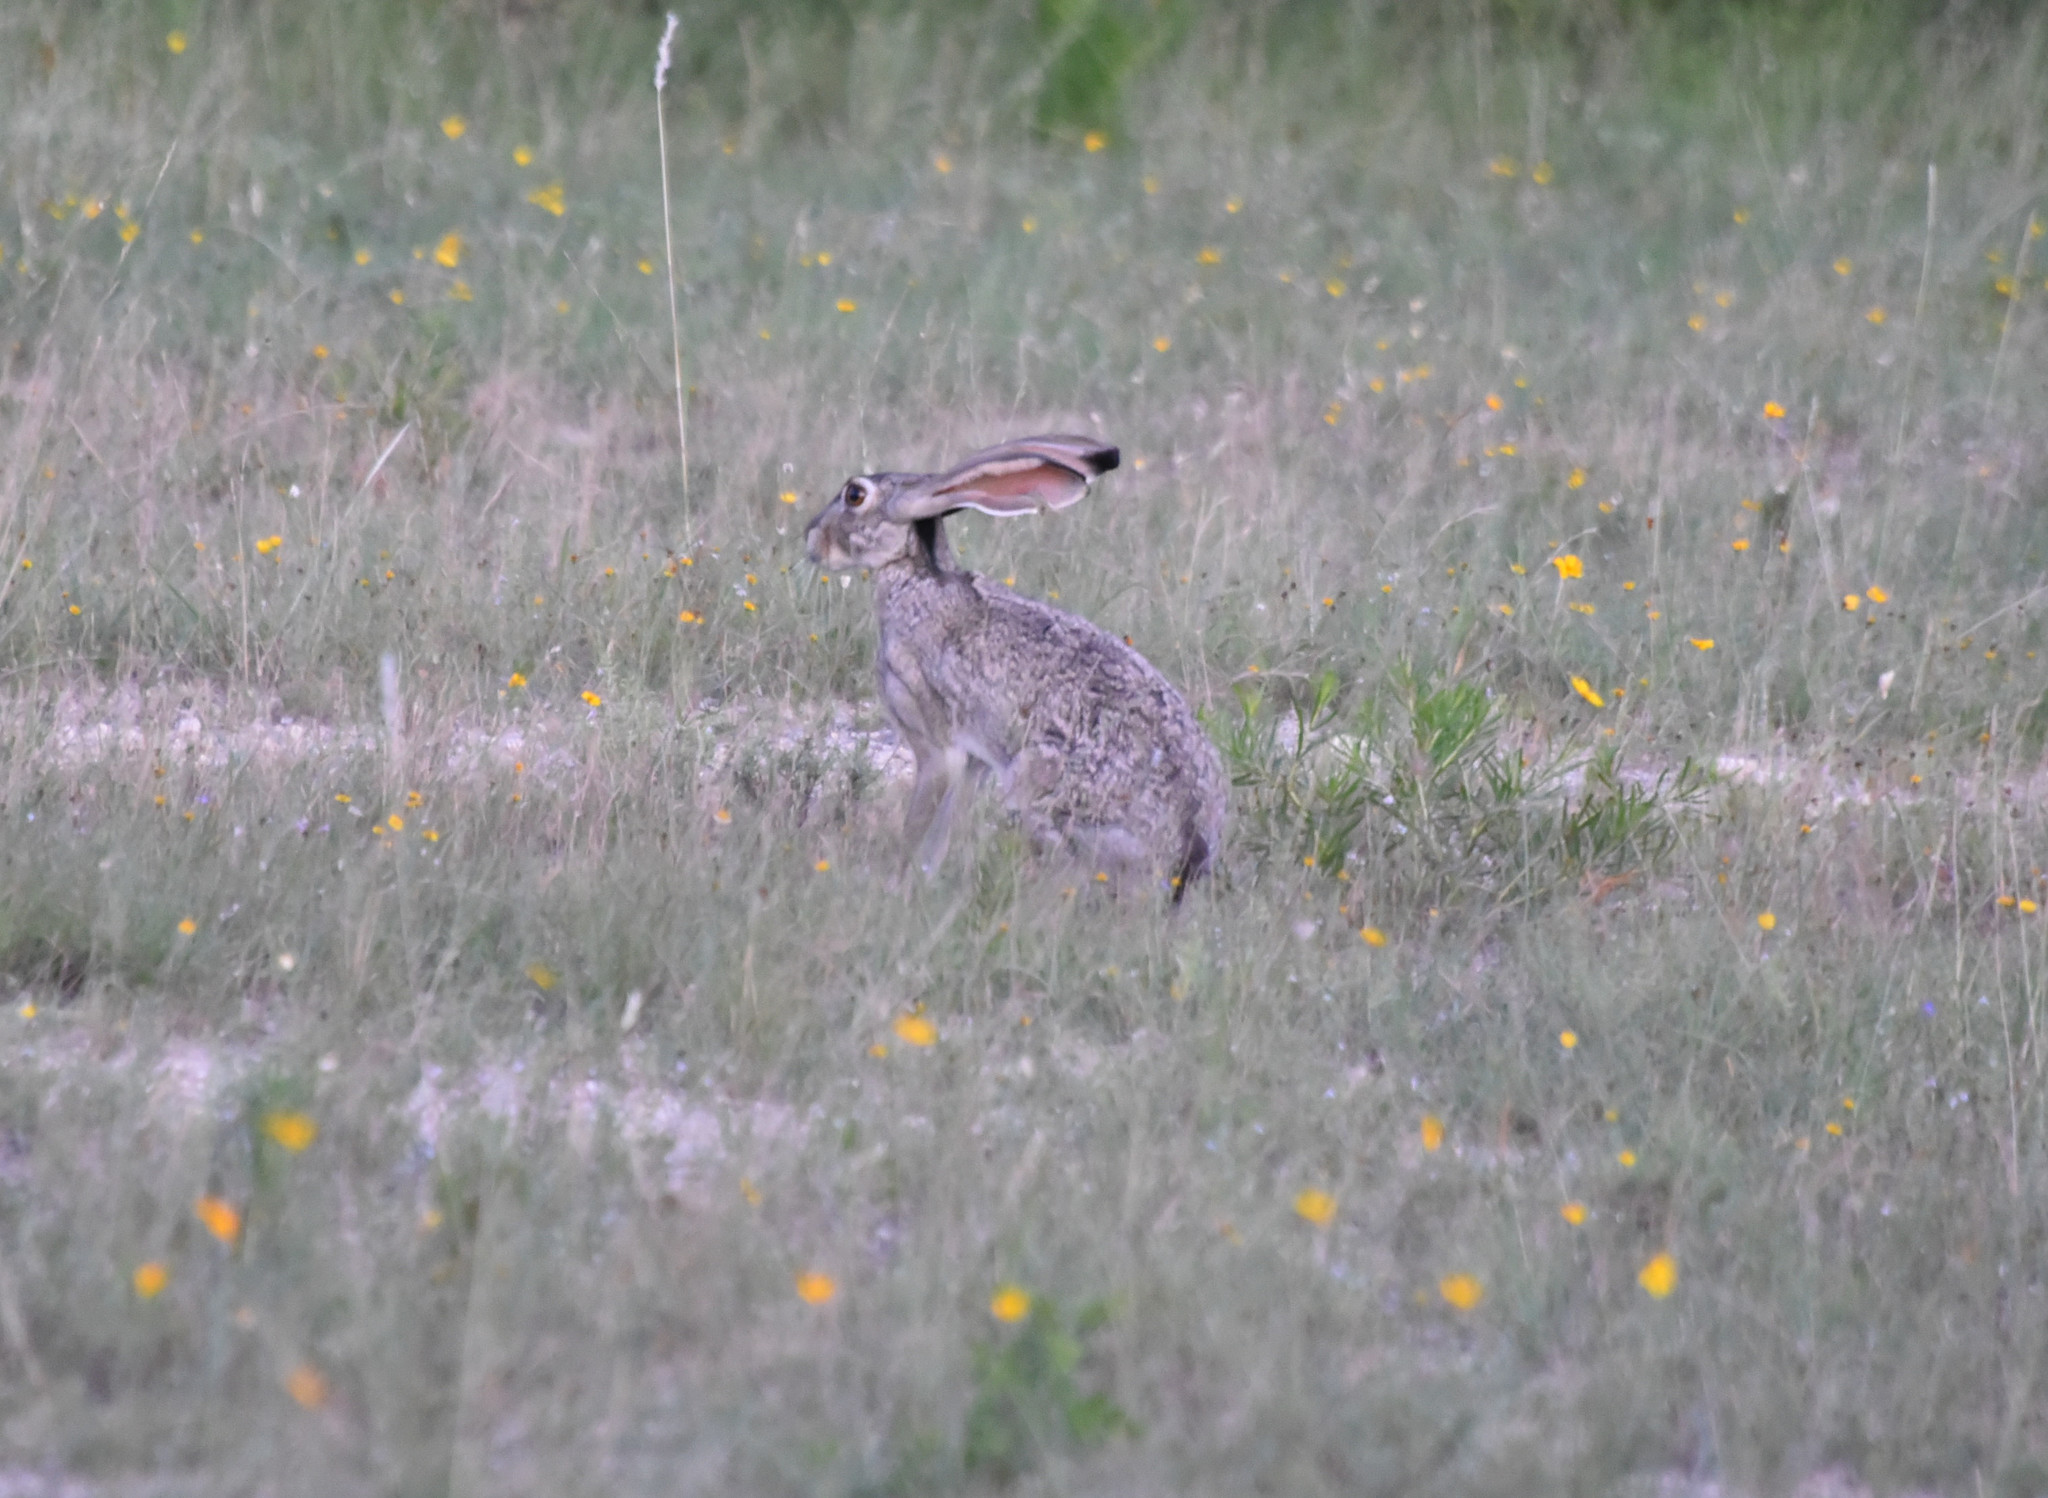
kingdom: Animalia
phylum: Chordata
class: Mammalia
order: Lagomorpha
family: Leporidae
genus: Lepus
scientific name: Lepus californicus
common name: Black-tailed jackrabbit
